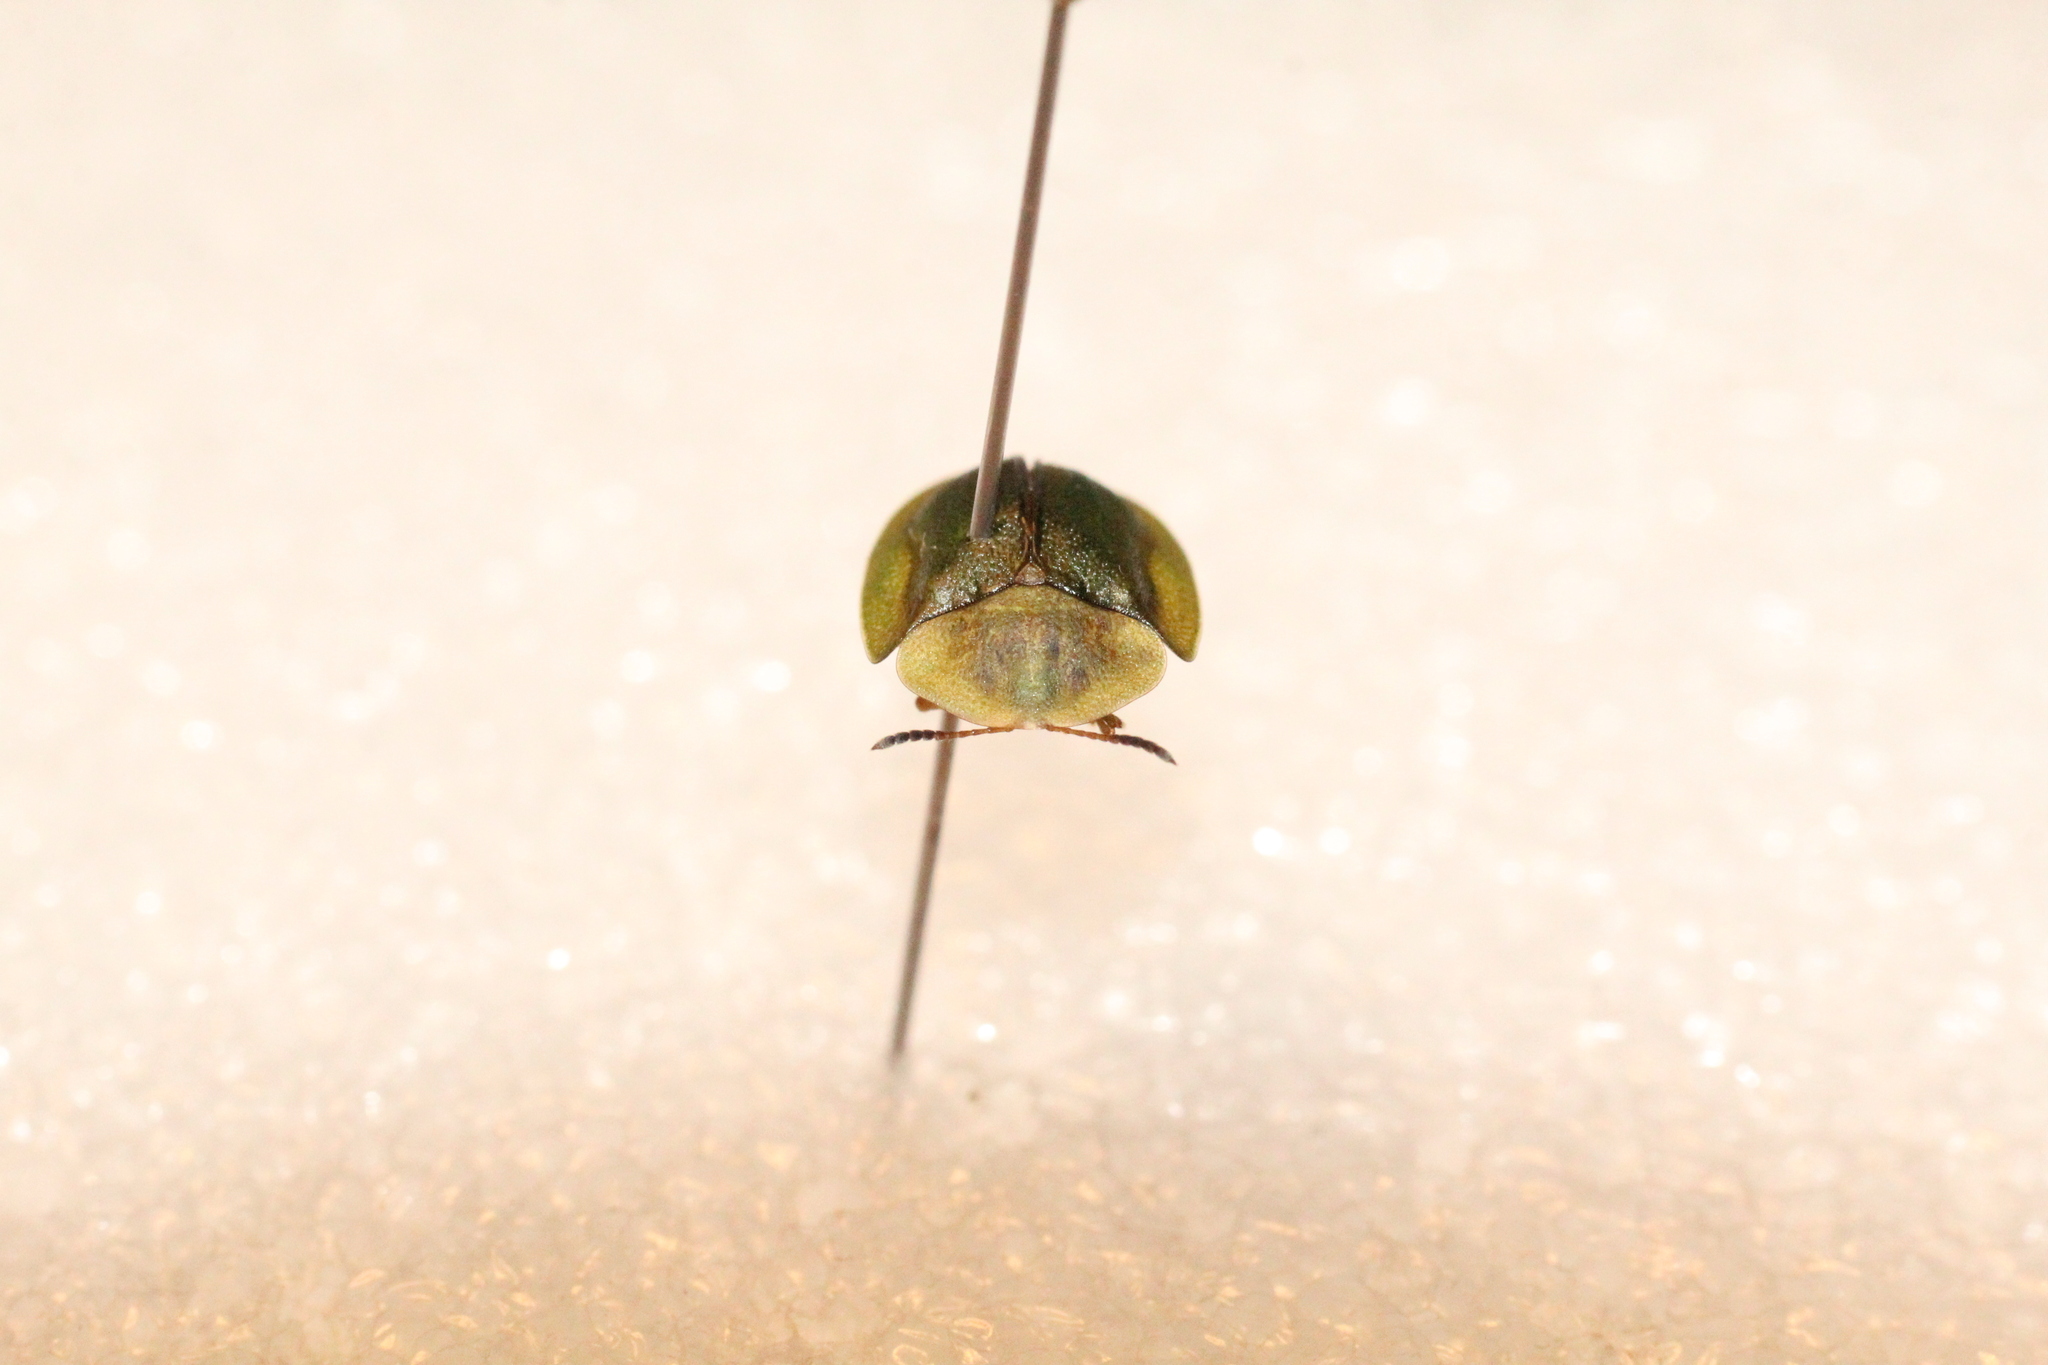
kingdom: Animalia
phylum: Arthropoda
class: Insecta
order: Coleoptera
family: Chrysomelidae
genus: Cassida
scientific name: Cassida viridis
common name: Green tortoise beetle
